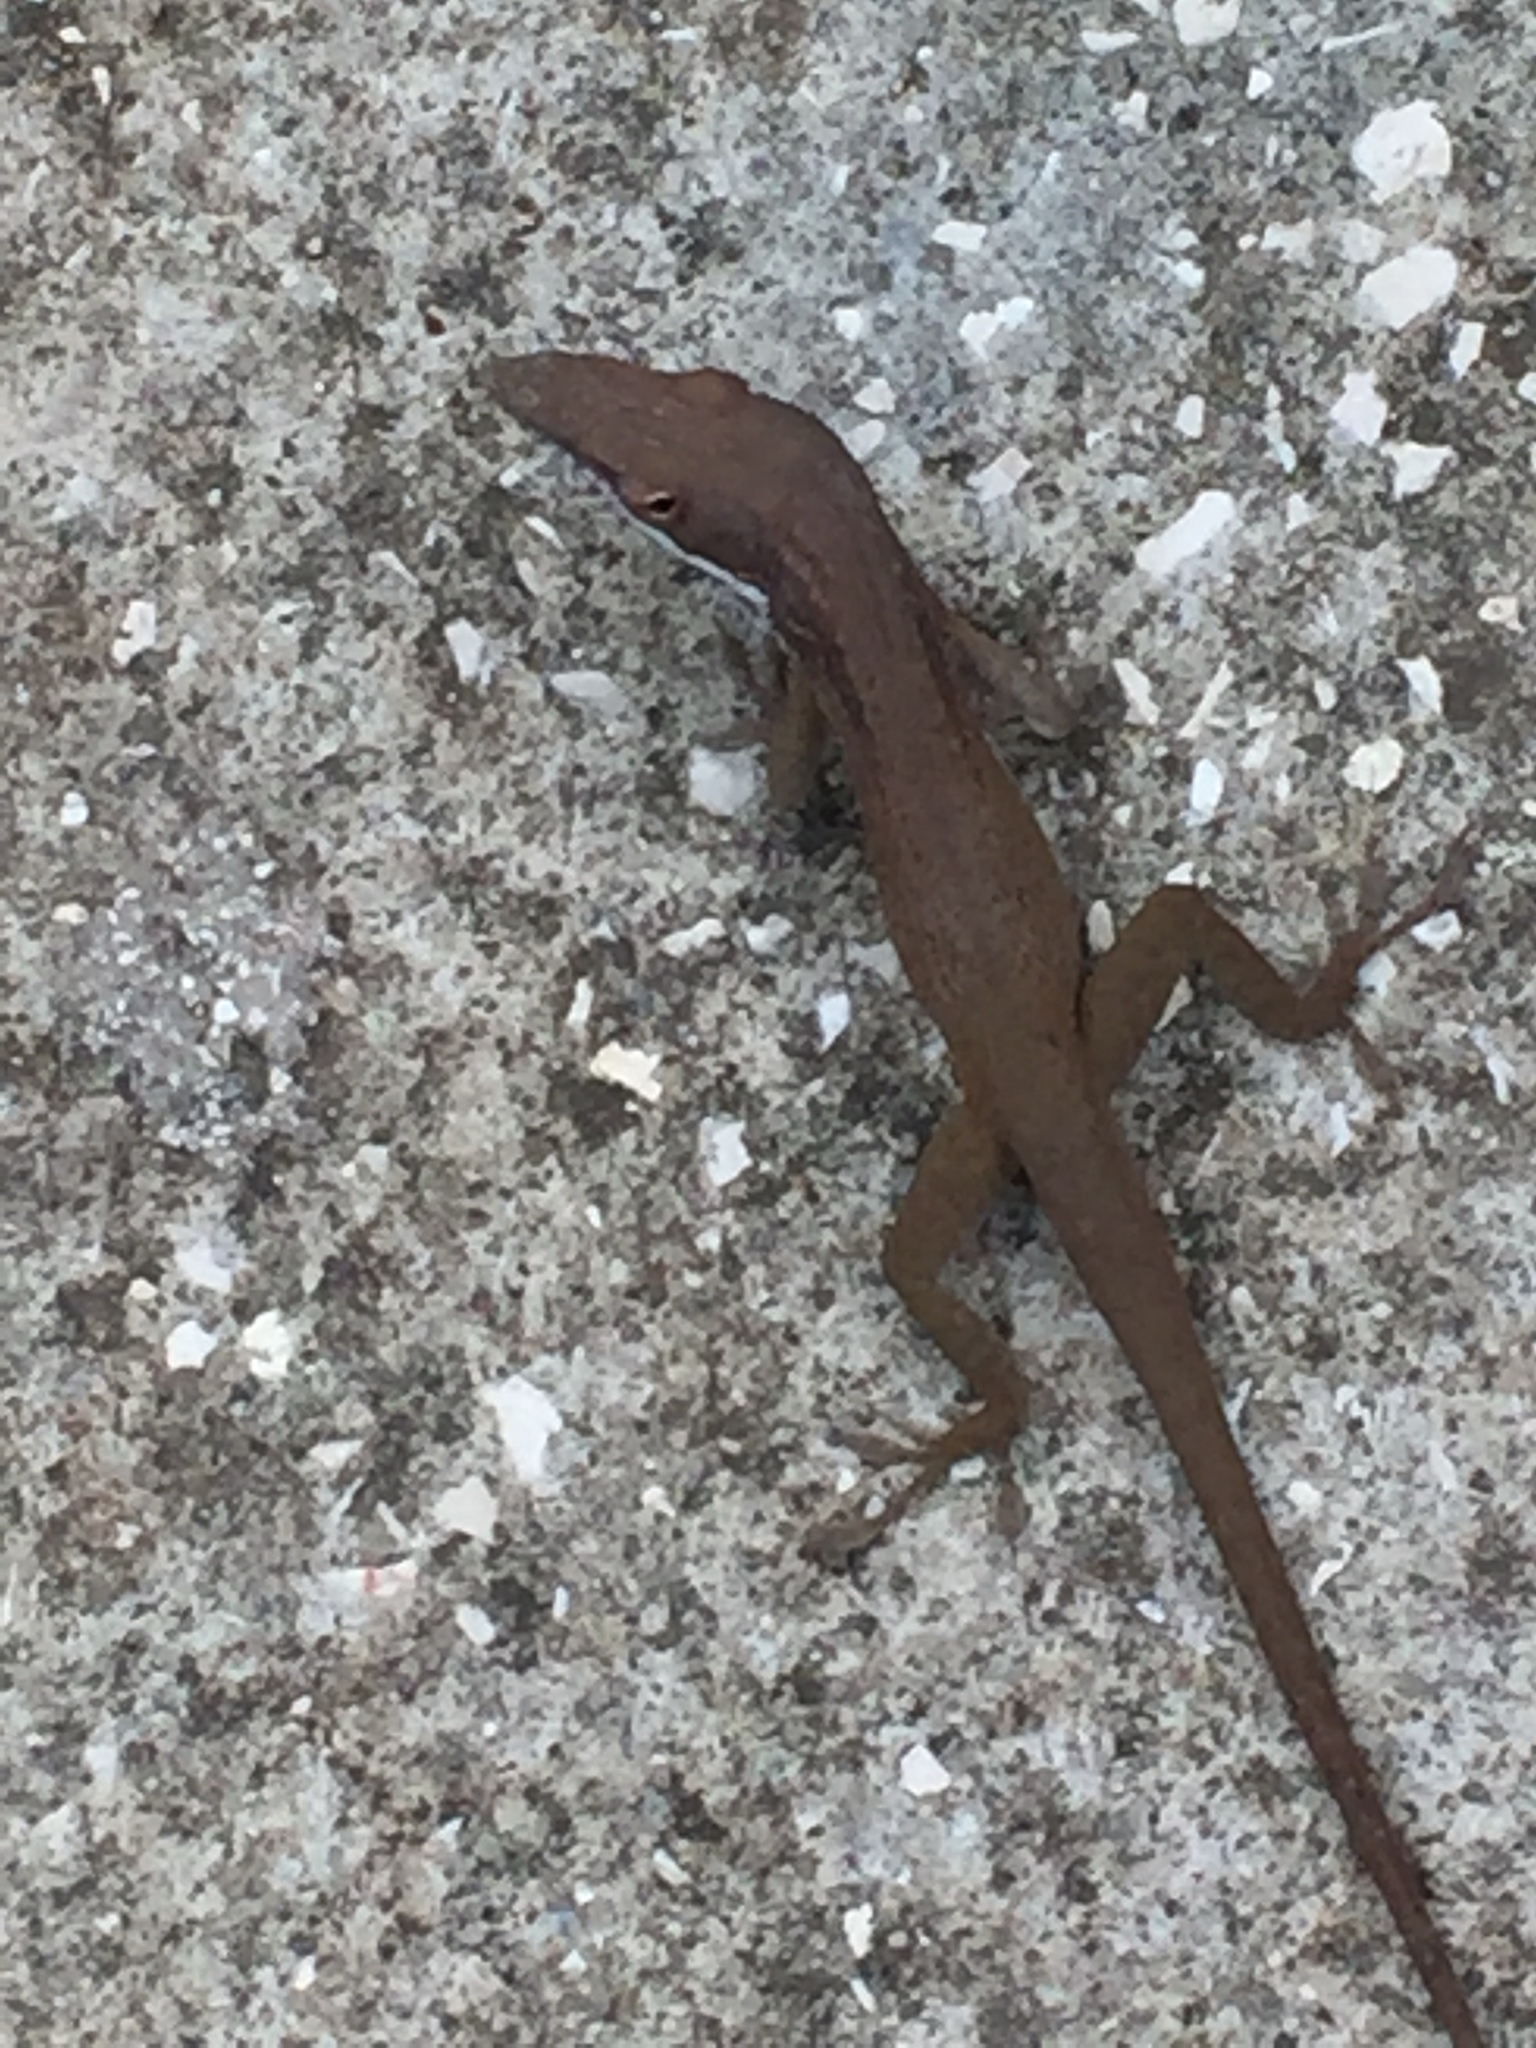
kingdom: Animalia
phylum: Chordata
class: Squamata
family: Dactyloidae
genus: Anolis
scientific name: Anolis porcatus
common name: Cuban green anole
